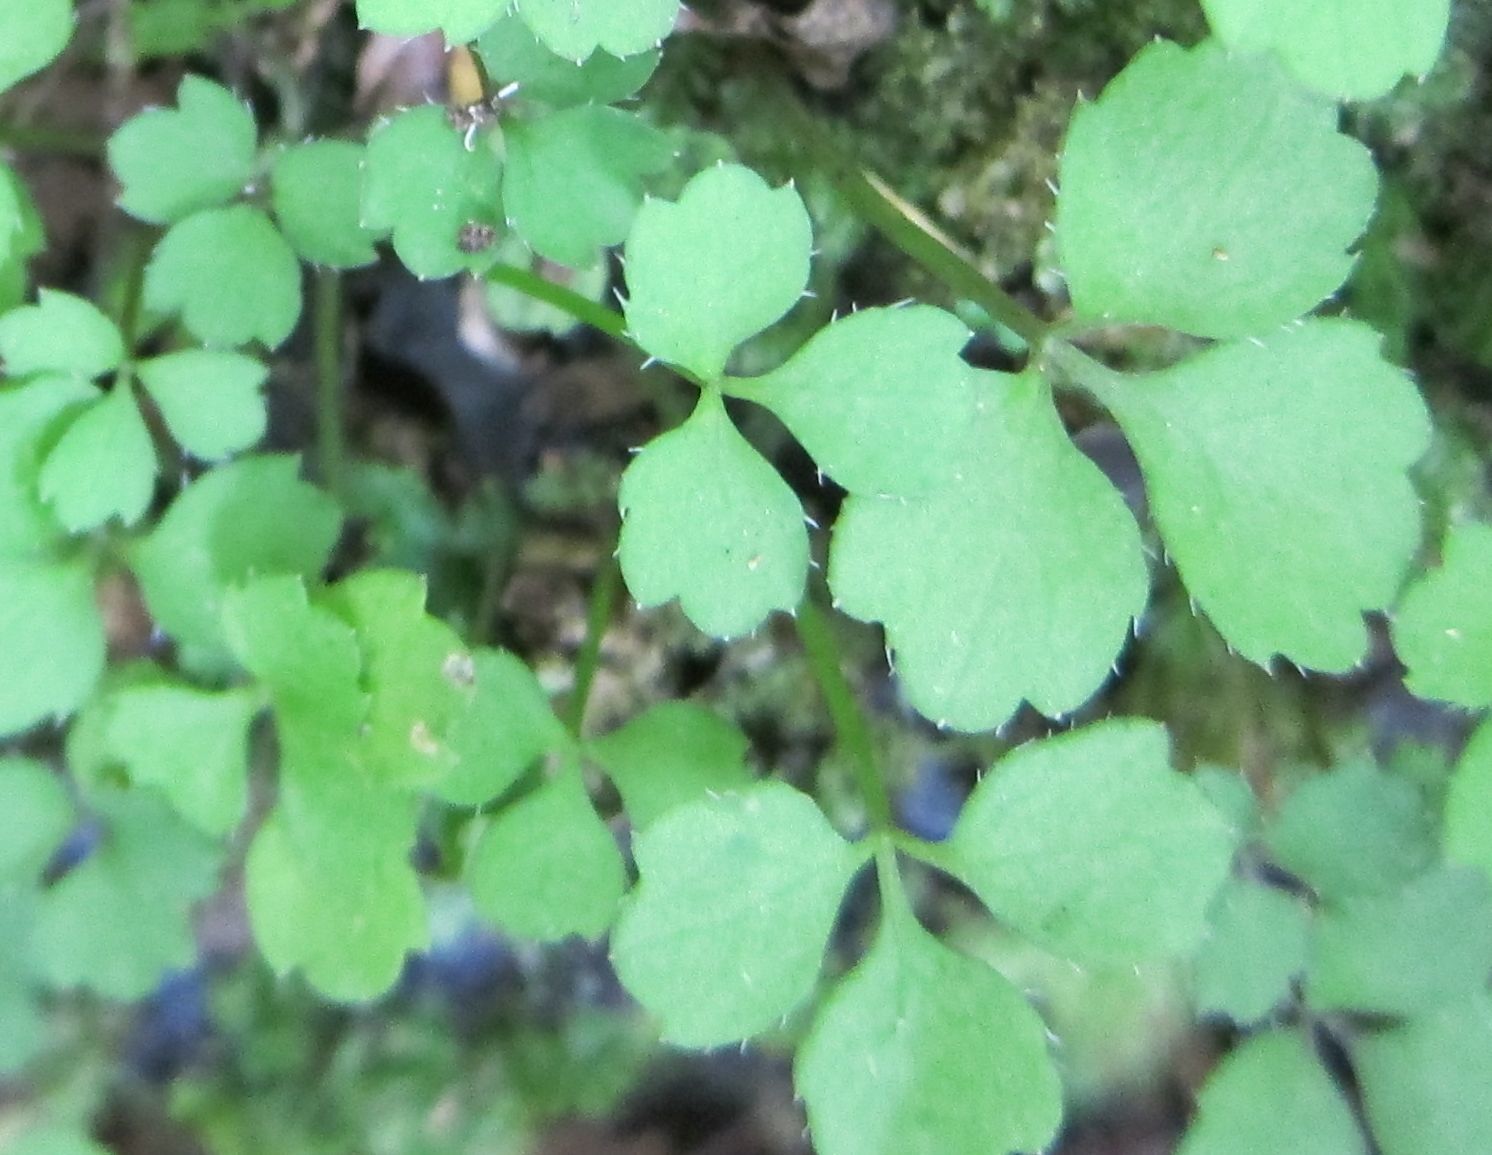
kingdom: Plantae
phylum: Tracheophyta
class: Magnoliopsida
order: Apiales
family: Apiaceae
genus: Azorella
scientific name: Azorella hookeri
